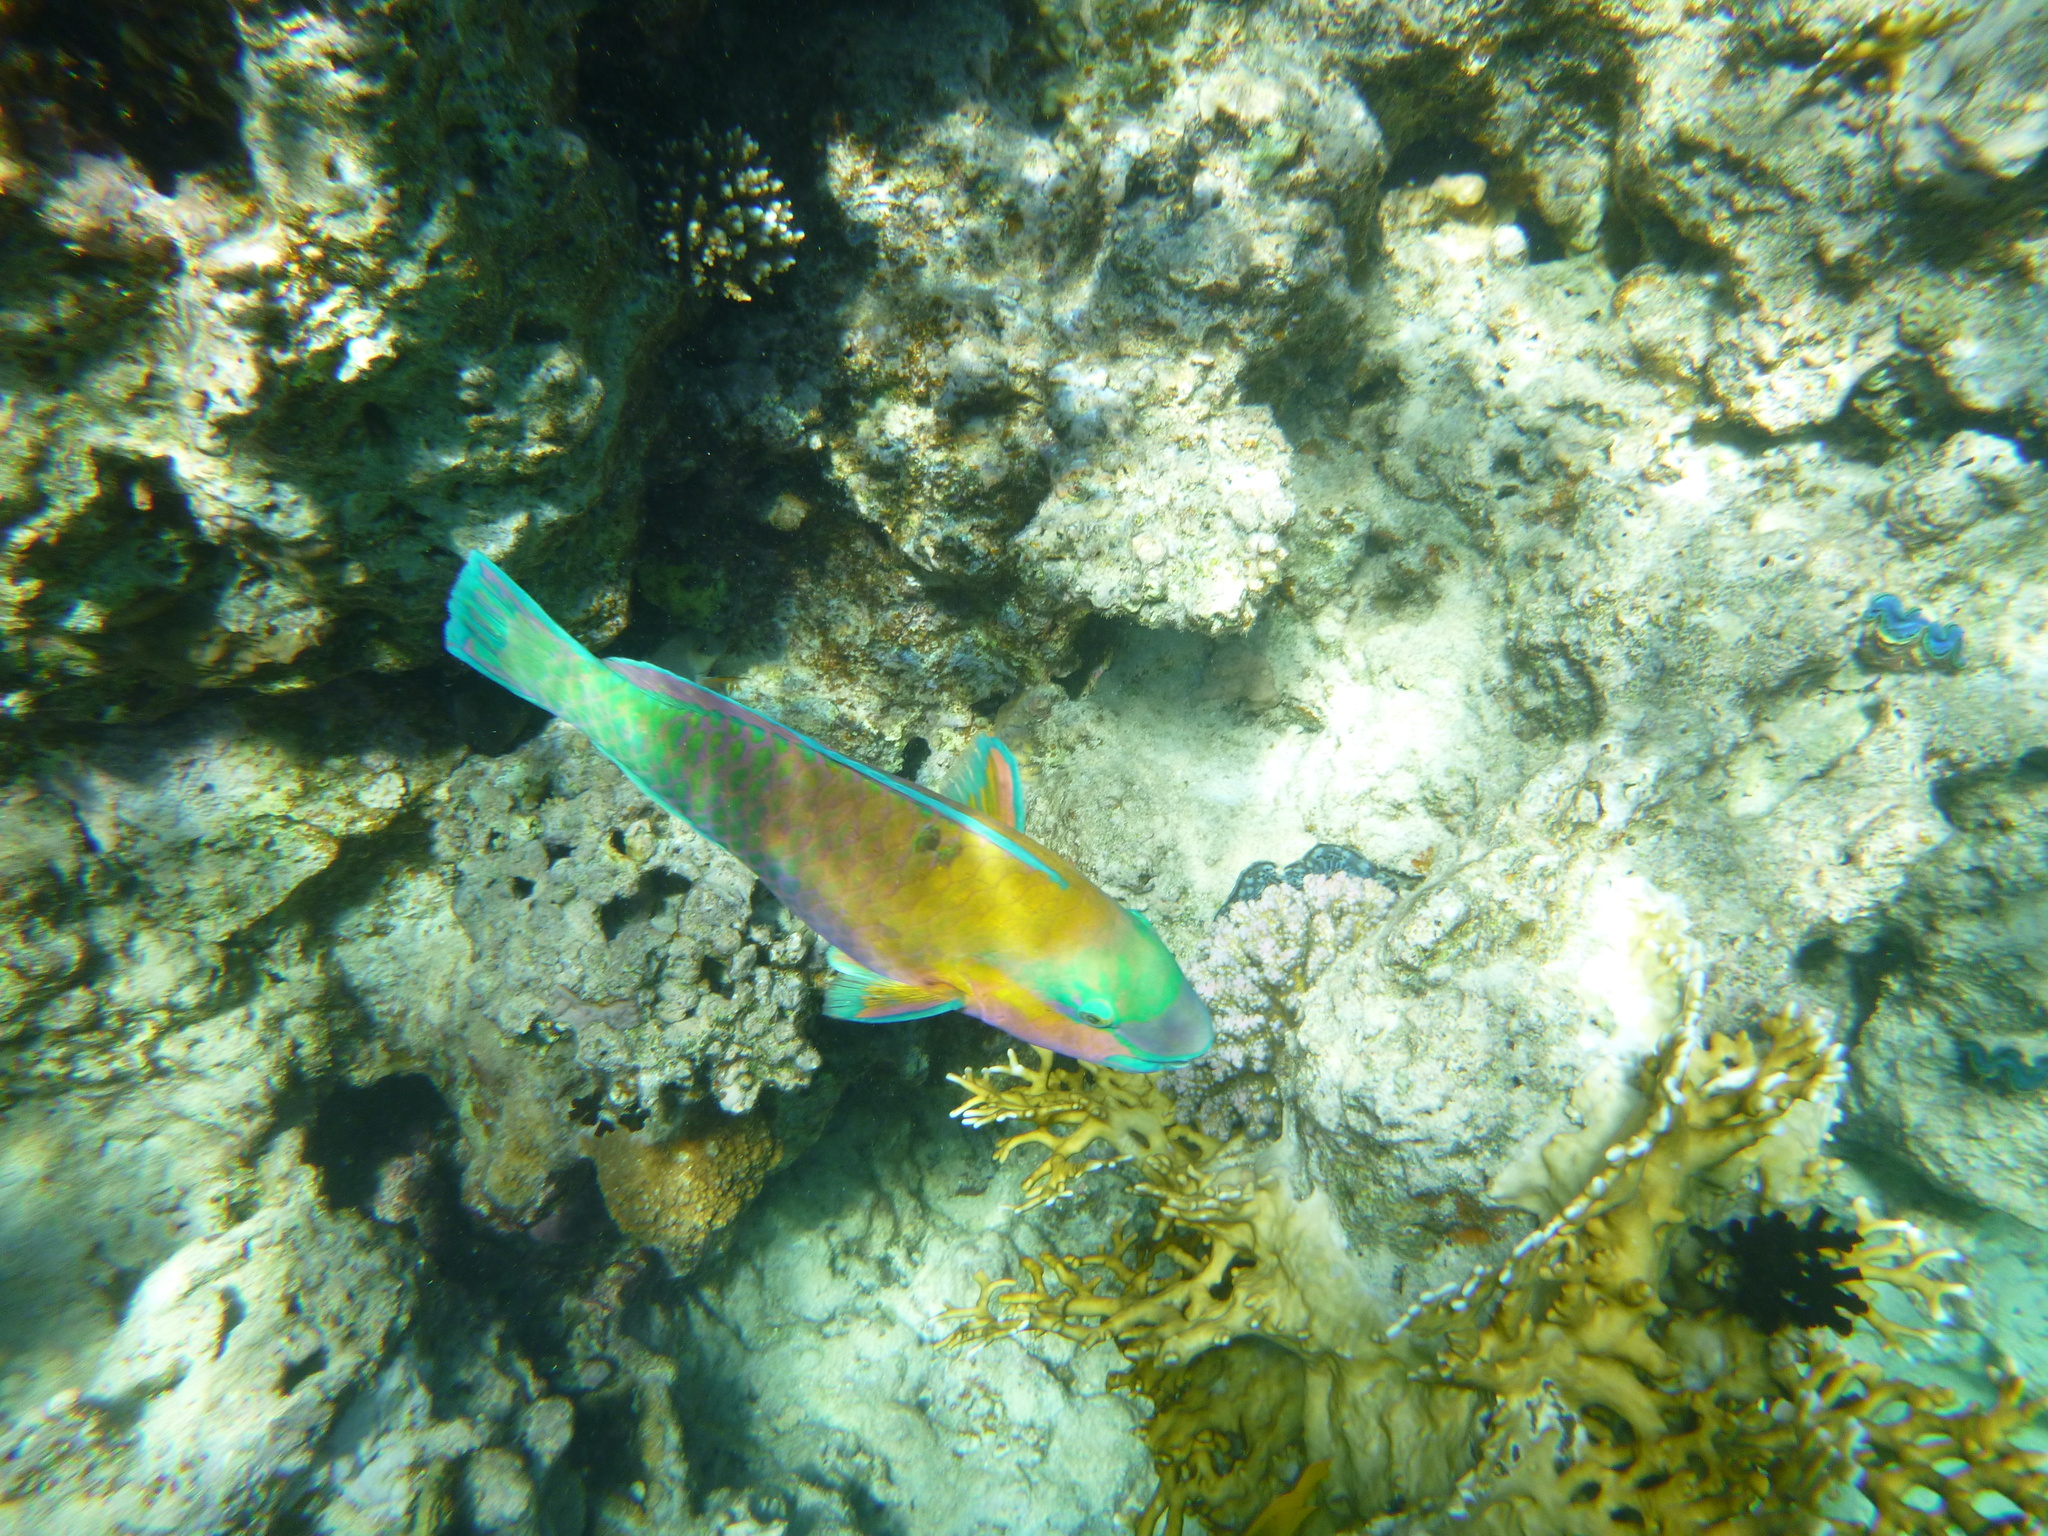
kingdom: Animalia
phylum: Chordata
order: Perciformes
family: Scaridae
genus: Chlorurus
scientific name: Chlorurus sordidus
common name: Bullethead parrotfish
